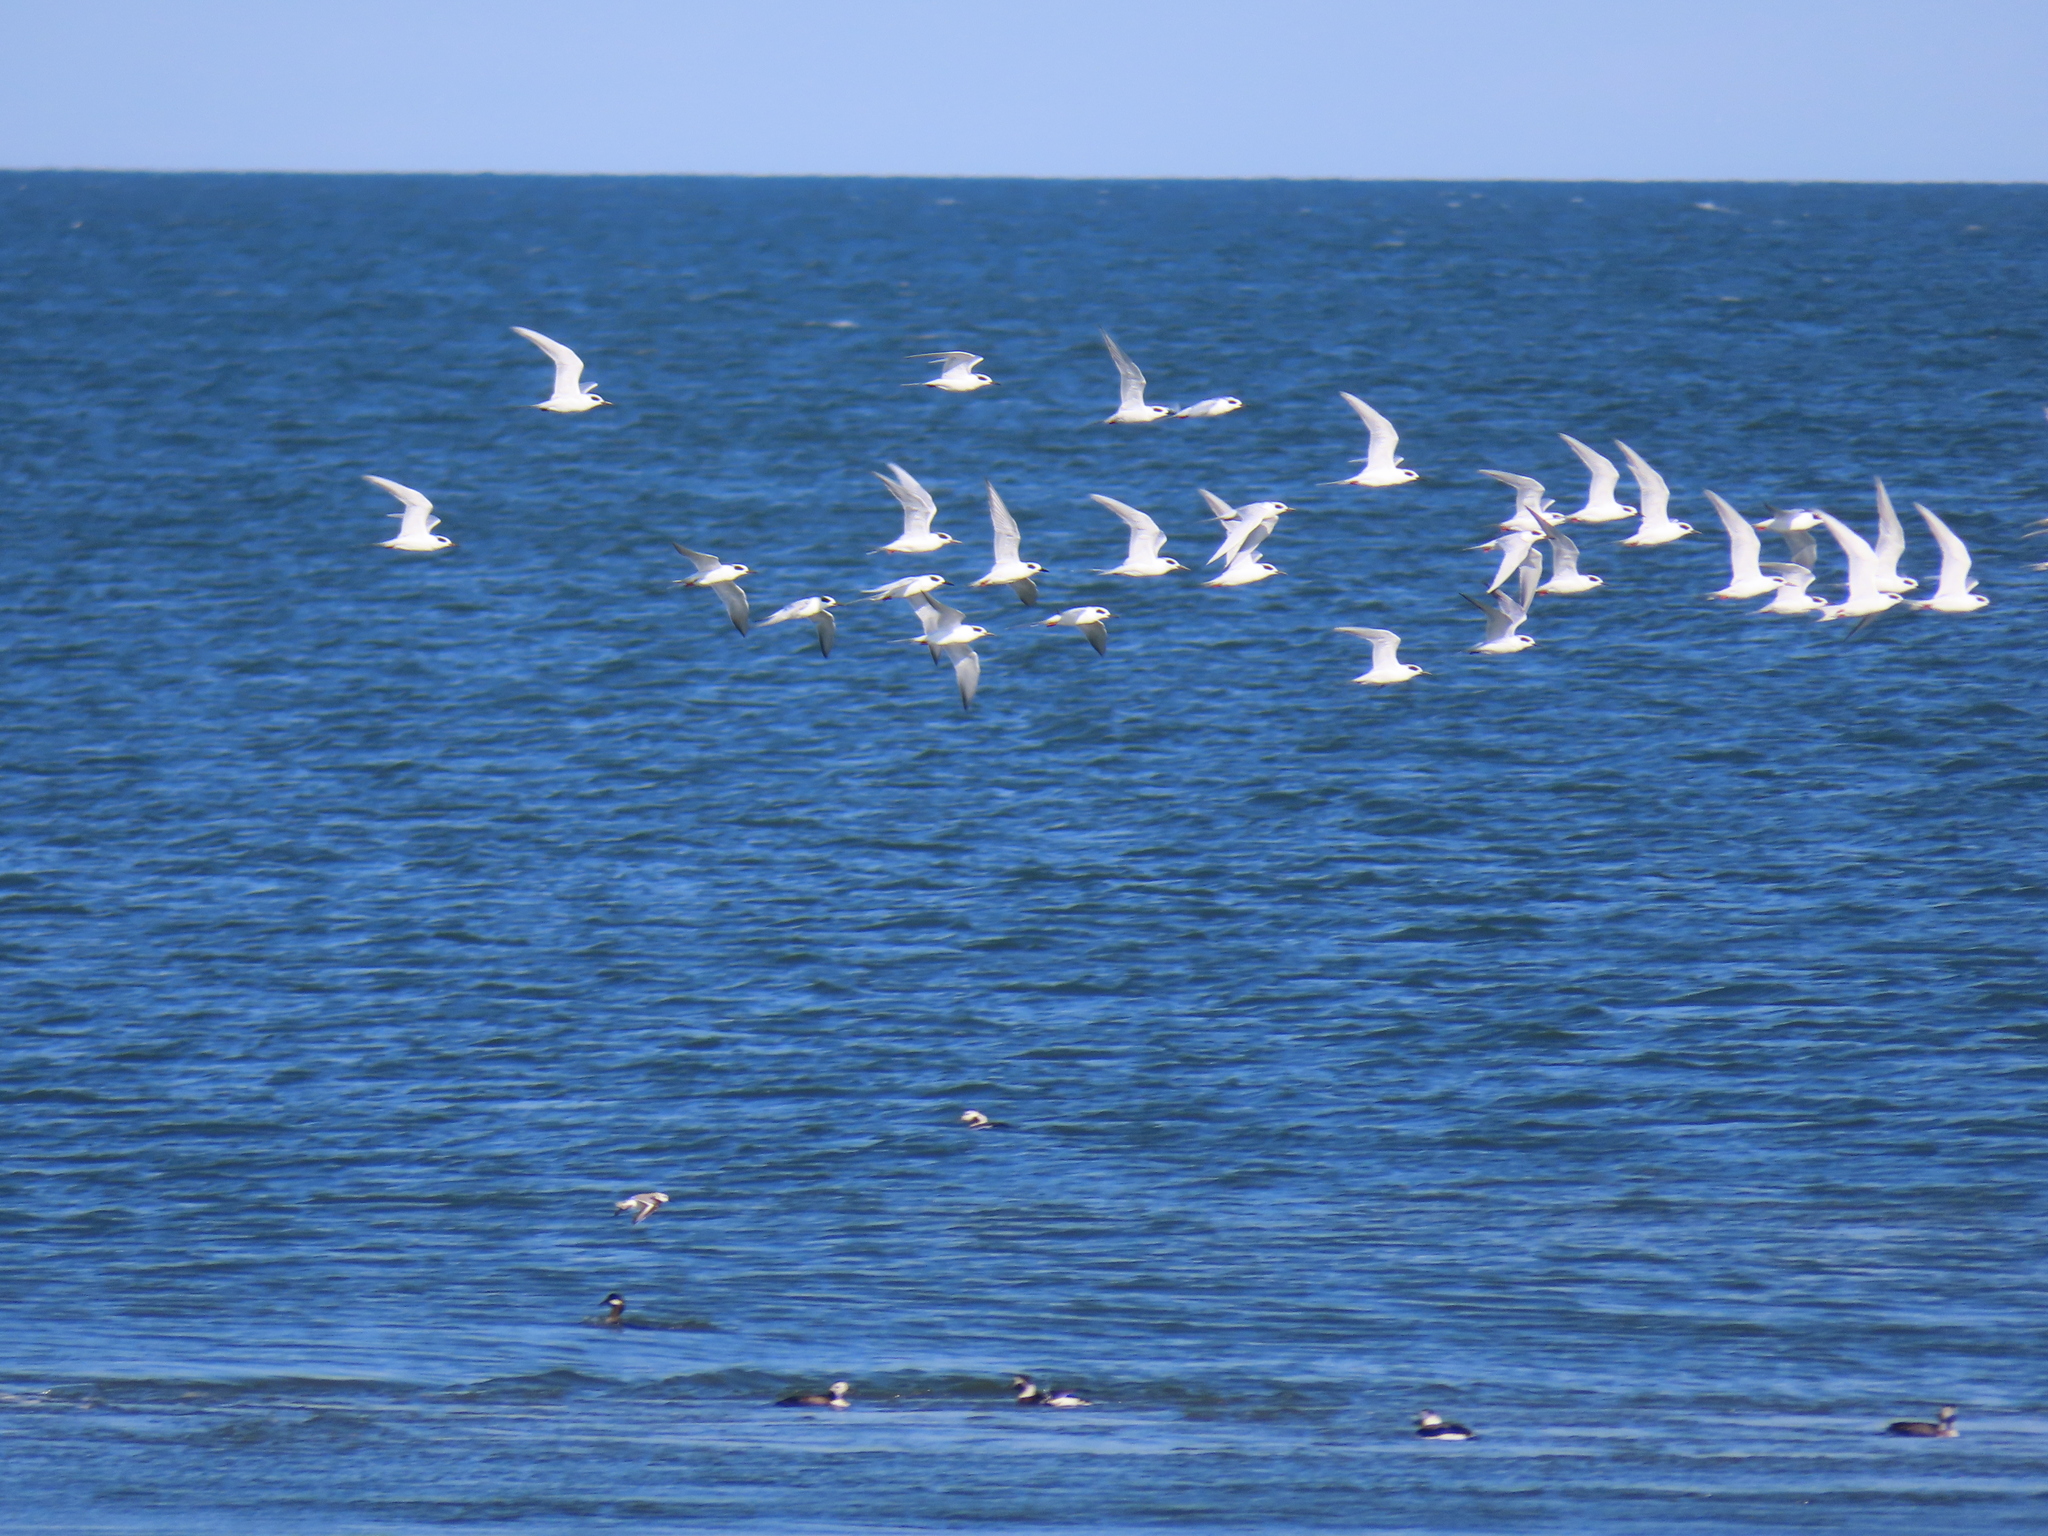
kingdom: Animalia
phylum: Chordata
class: Aves
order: Charadriiformes
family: Laridae
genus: Chroicocephalus
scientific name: Chroicocephalus philadelphia
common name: Bonaparte's gull
